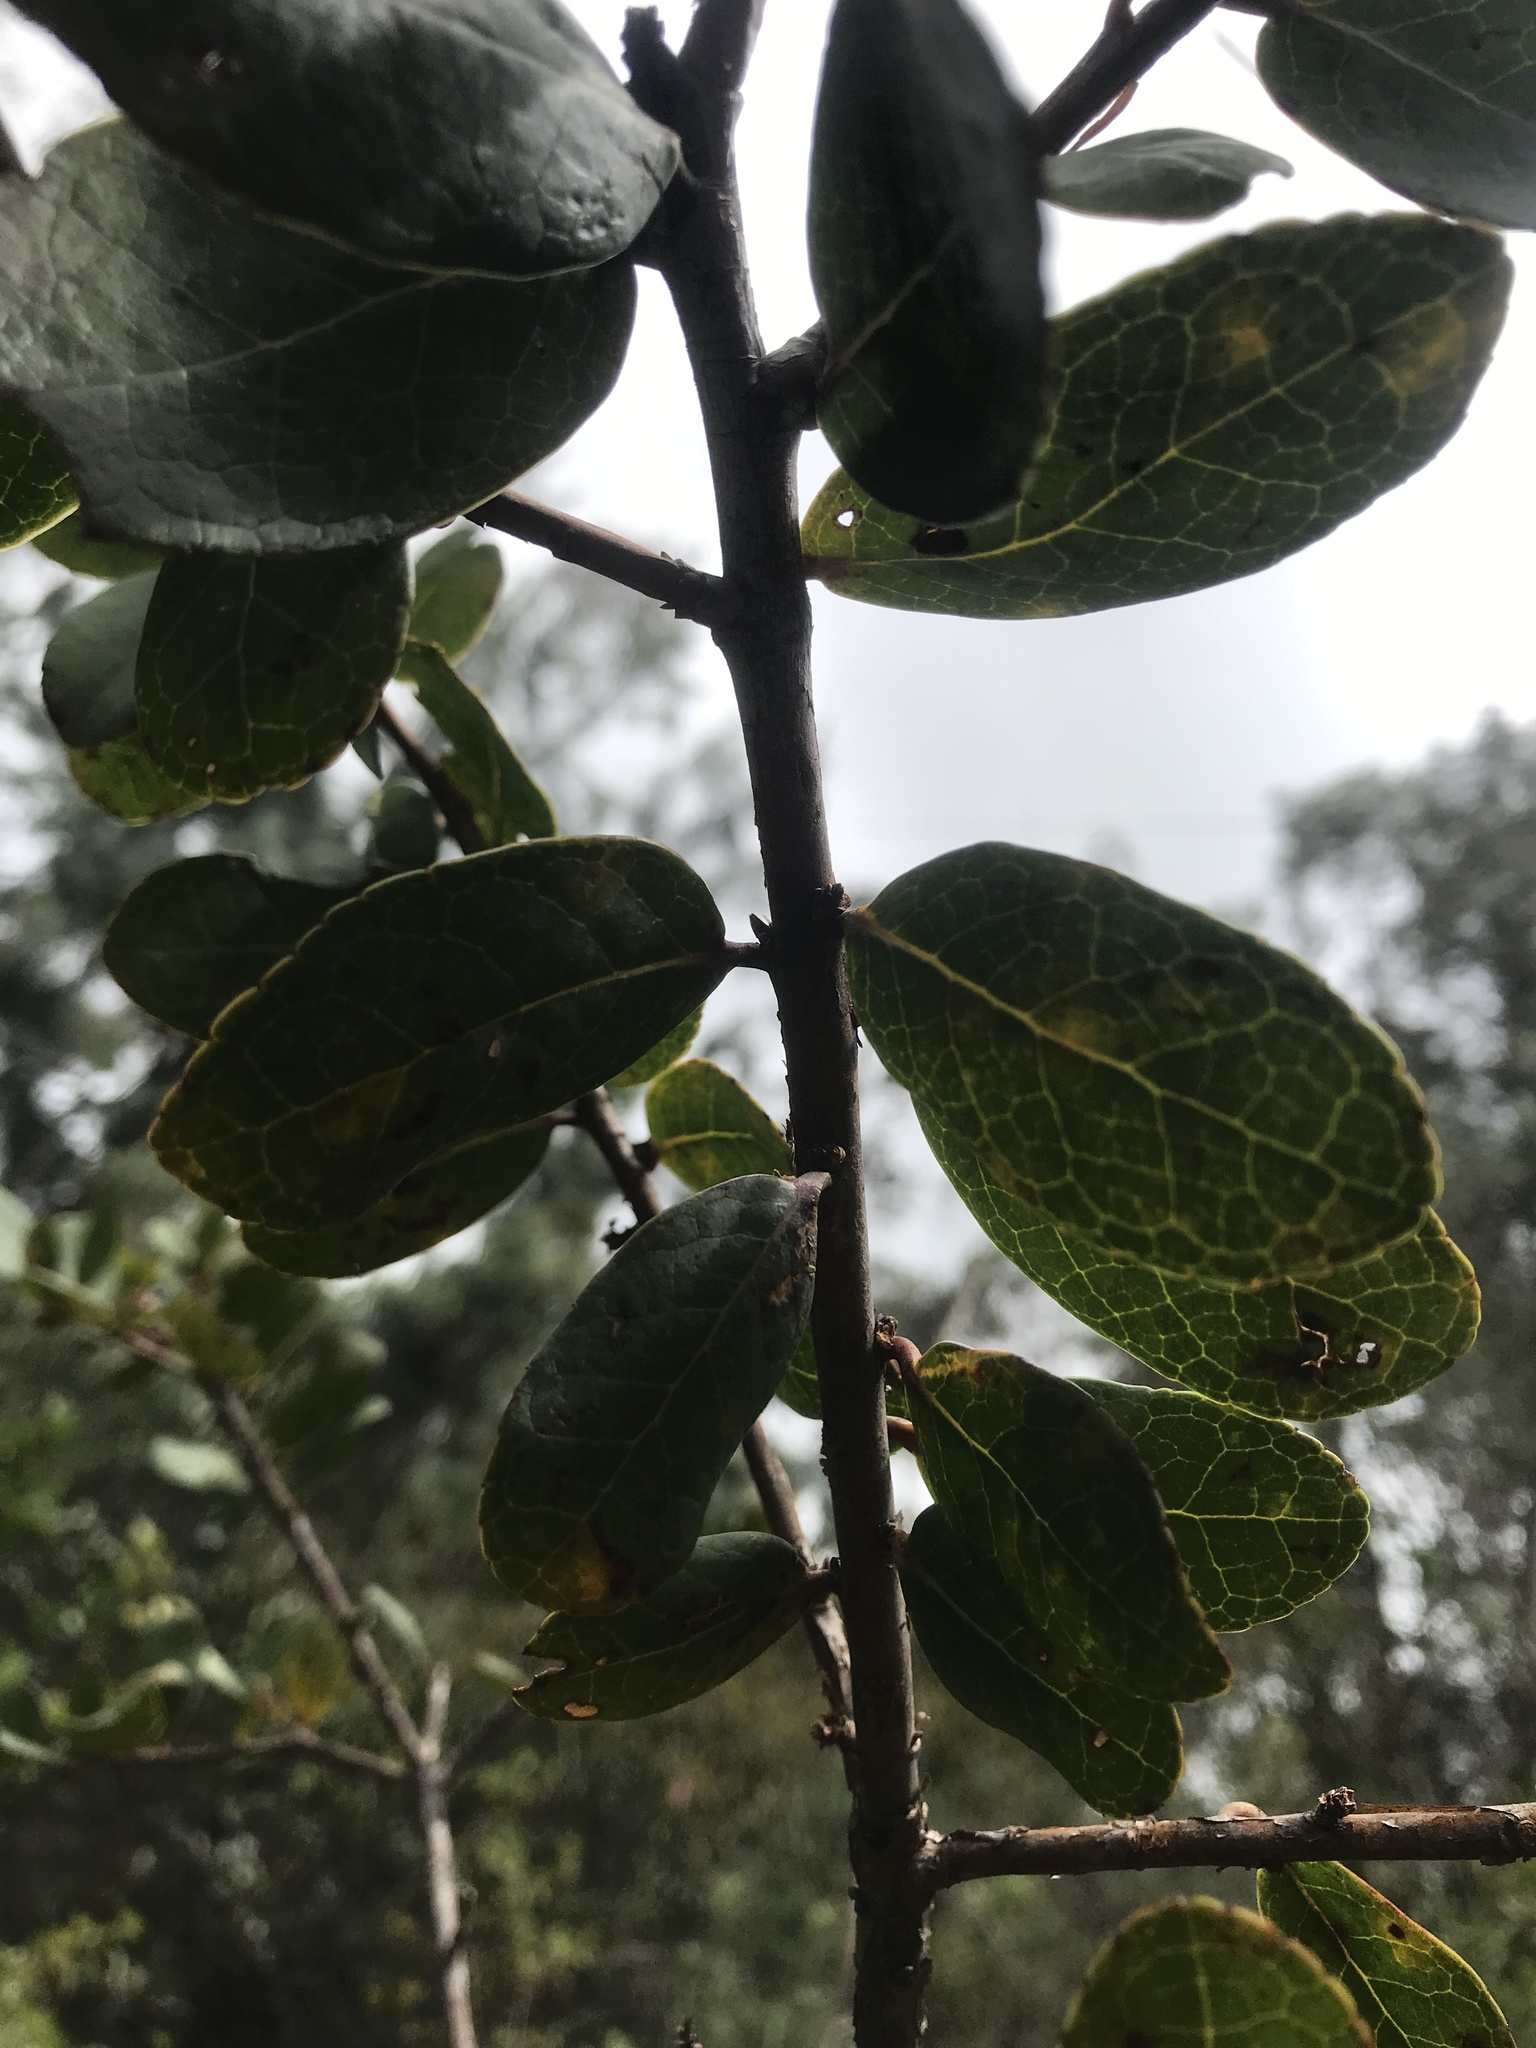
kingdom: Plantae
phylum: Tracheophyta
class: Magnoliopsida
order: Ericales
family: Symplocaceae
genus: Symplocos
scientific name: Symplocos theiformis
